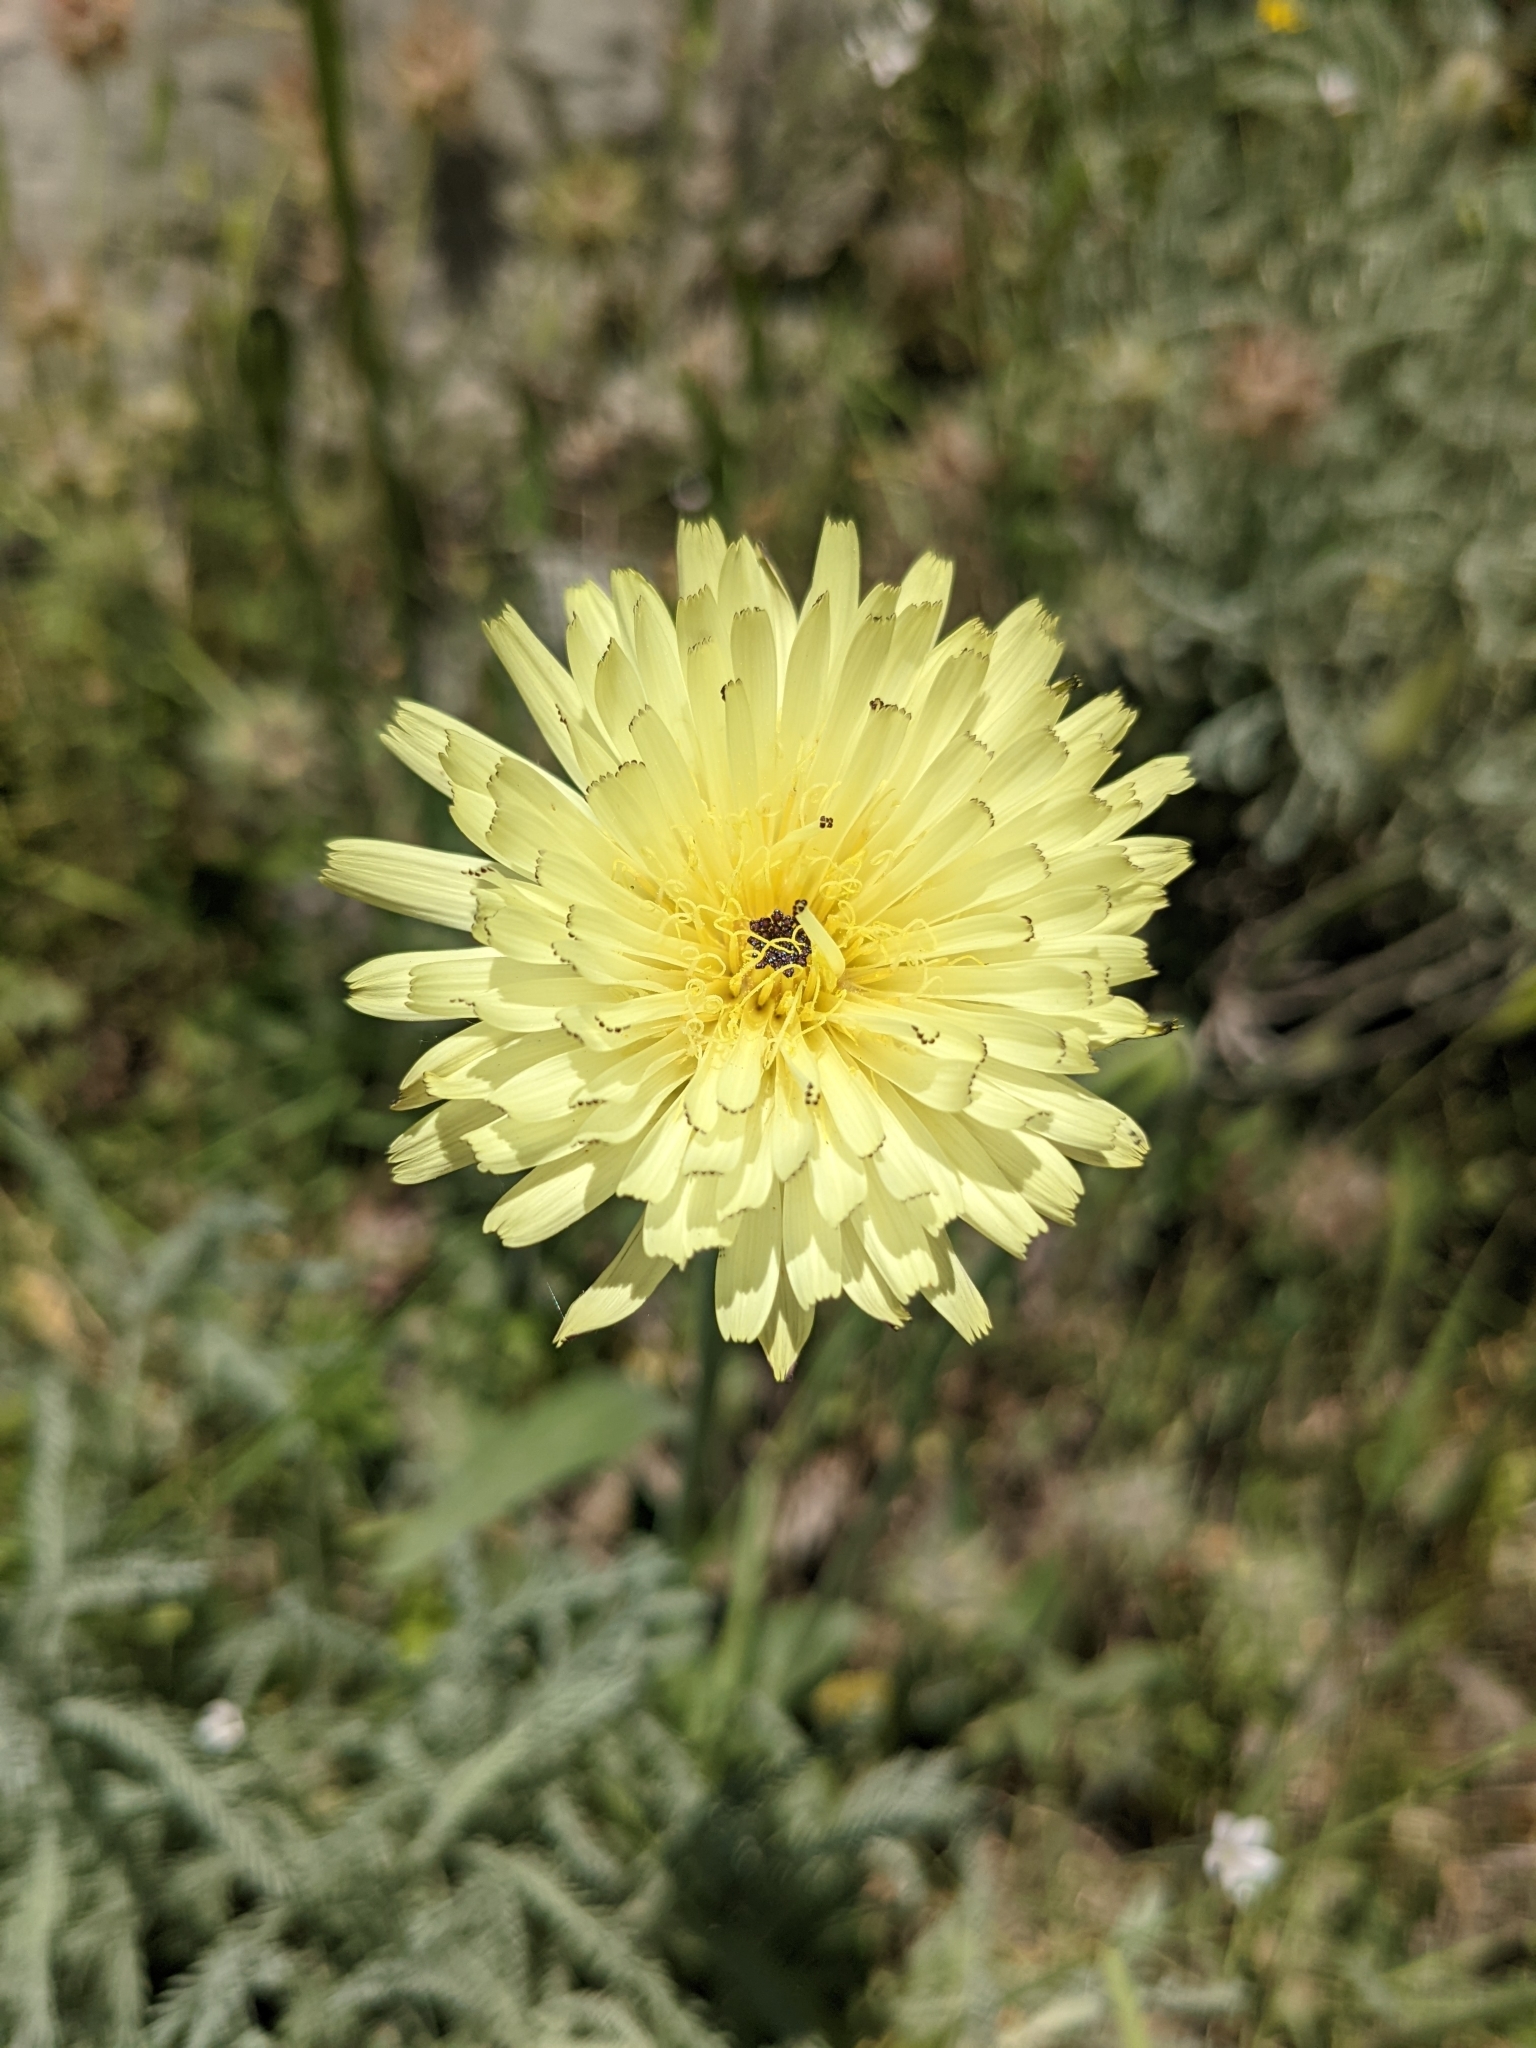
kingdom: Plantae
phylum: Tracheophyta
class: Magnoliopsida
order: Asterales
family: Asteraceae
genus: Urospermum
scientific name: Urospermum dalechampii
